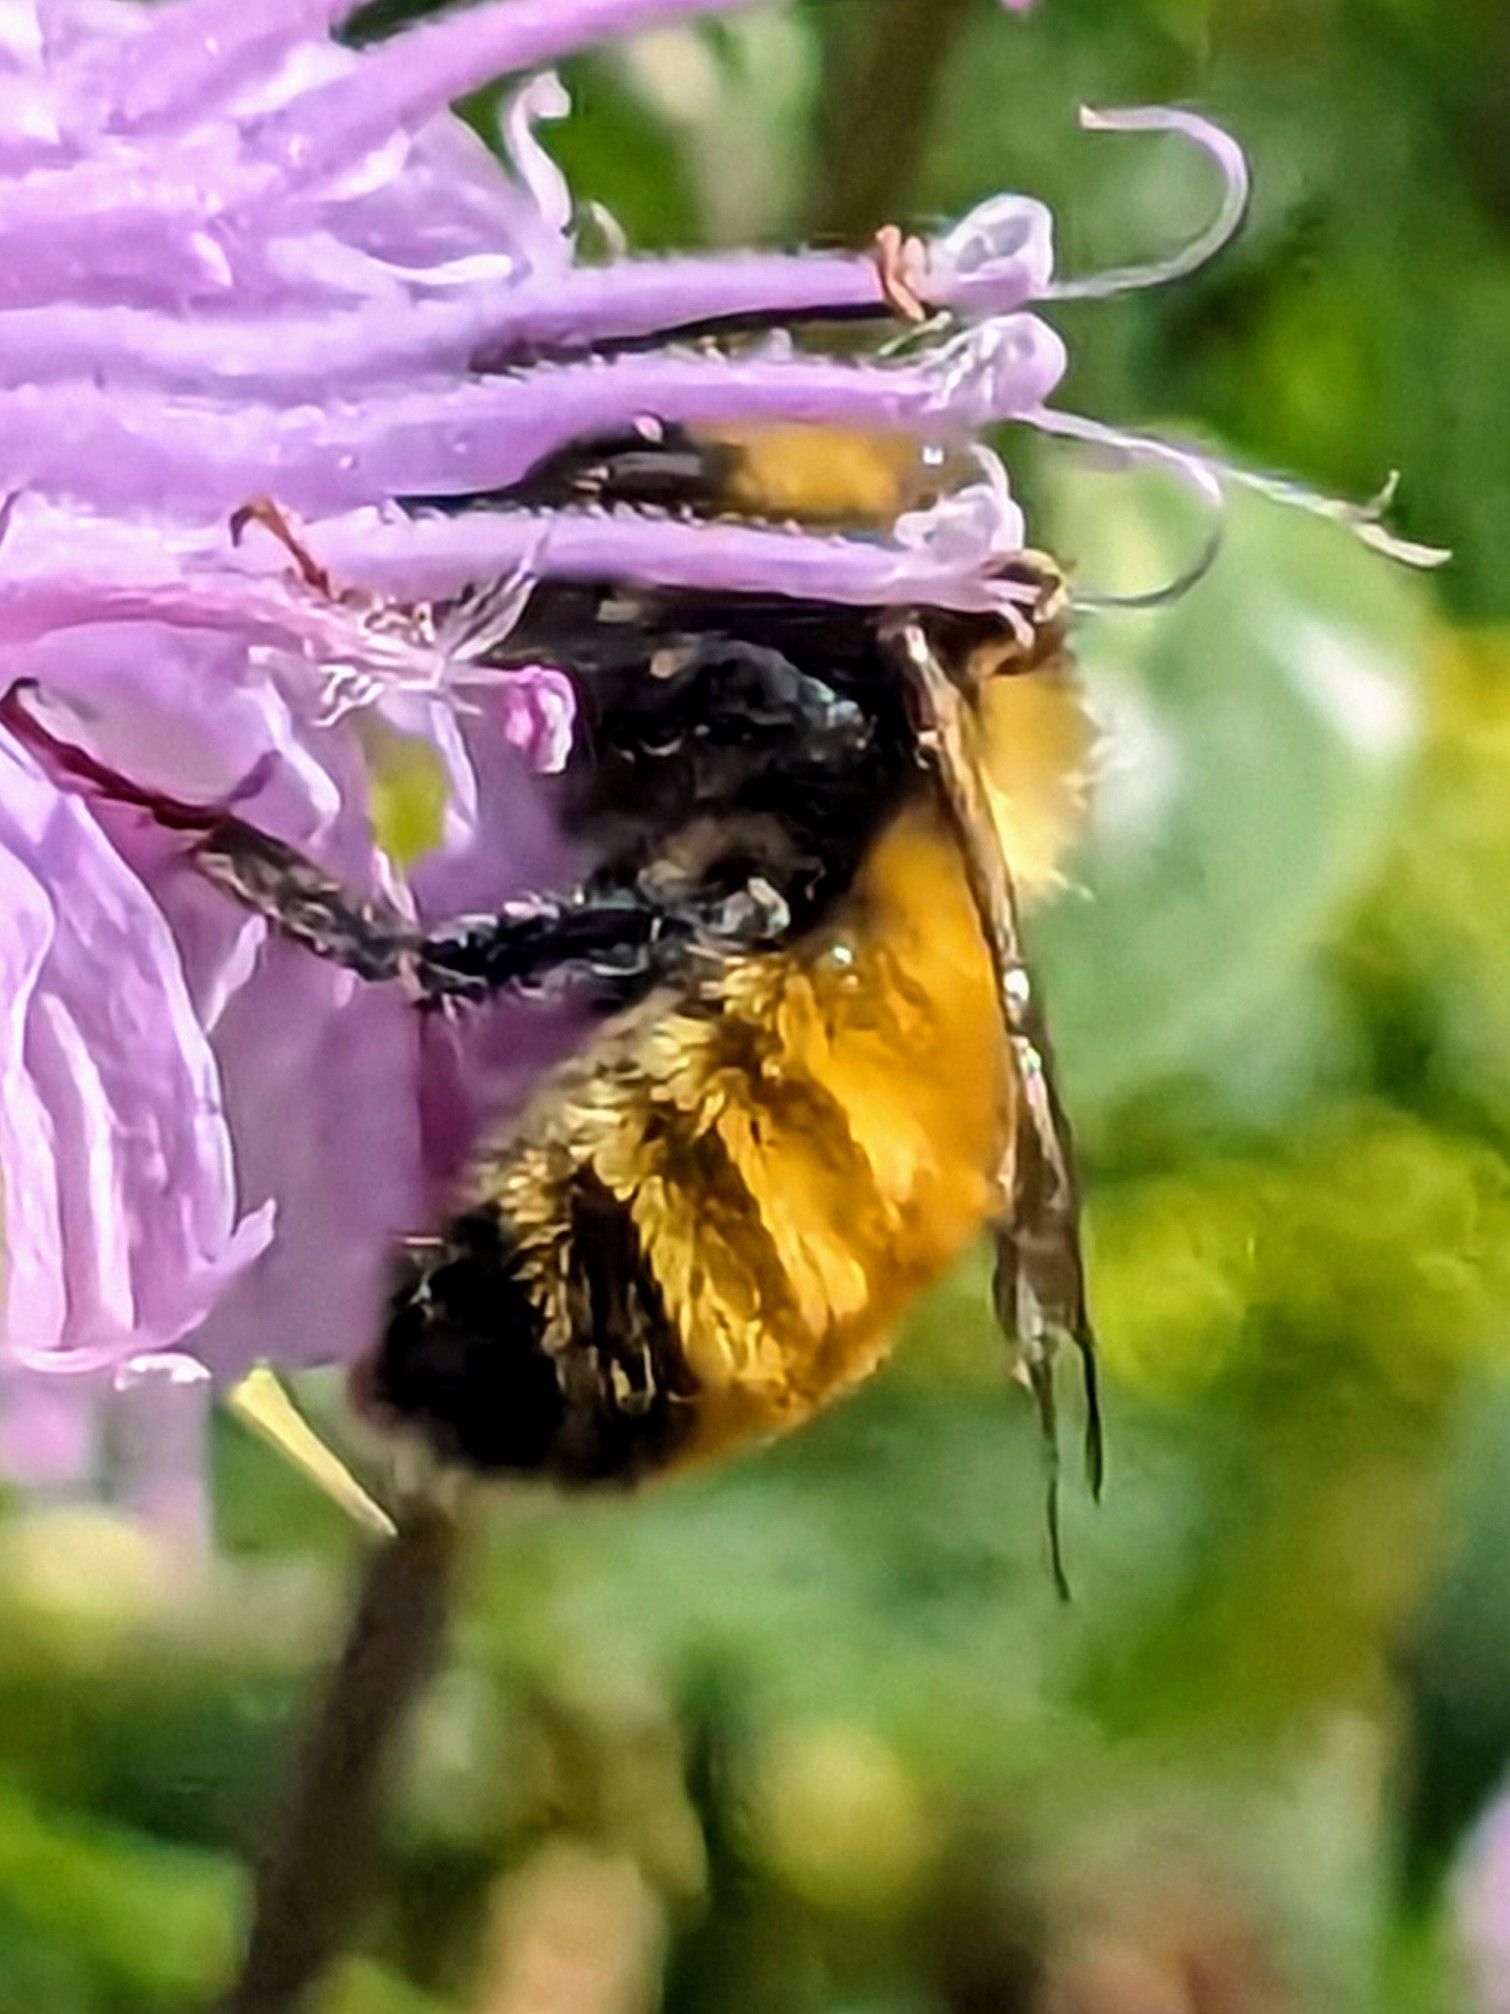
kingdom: Animalia
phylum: Arthropoda
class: Insecta
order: Hymenoptera
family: Apidae
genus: Bombus
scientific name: Bombus borealis
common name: Northern amber bumble bee
